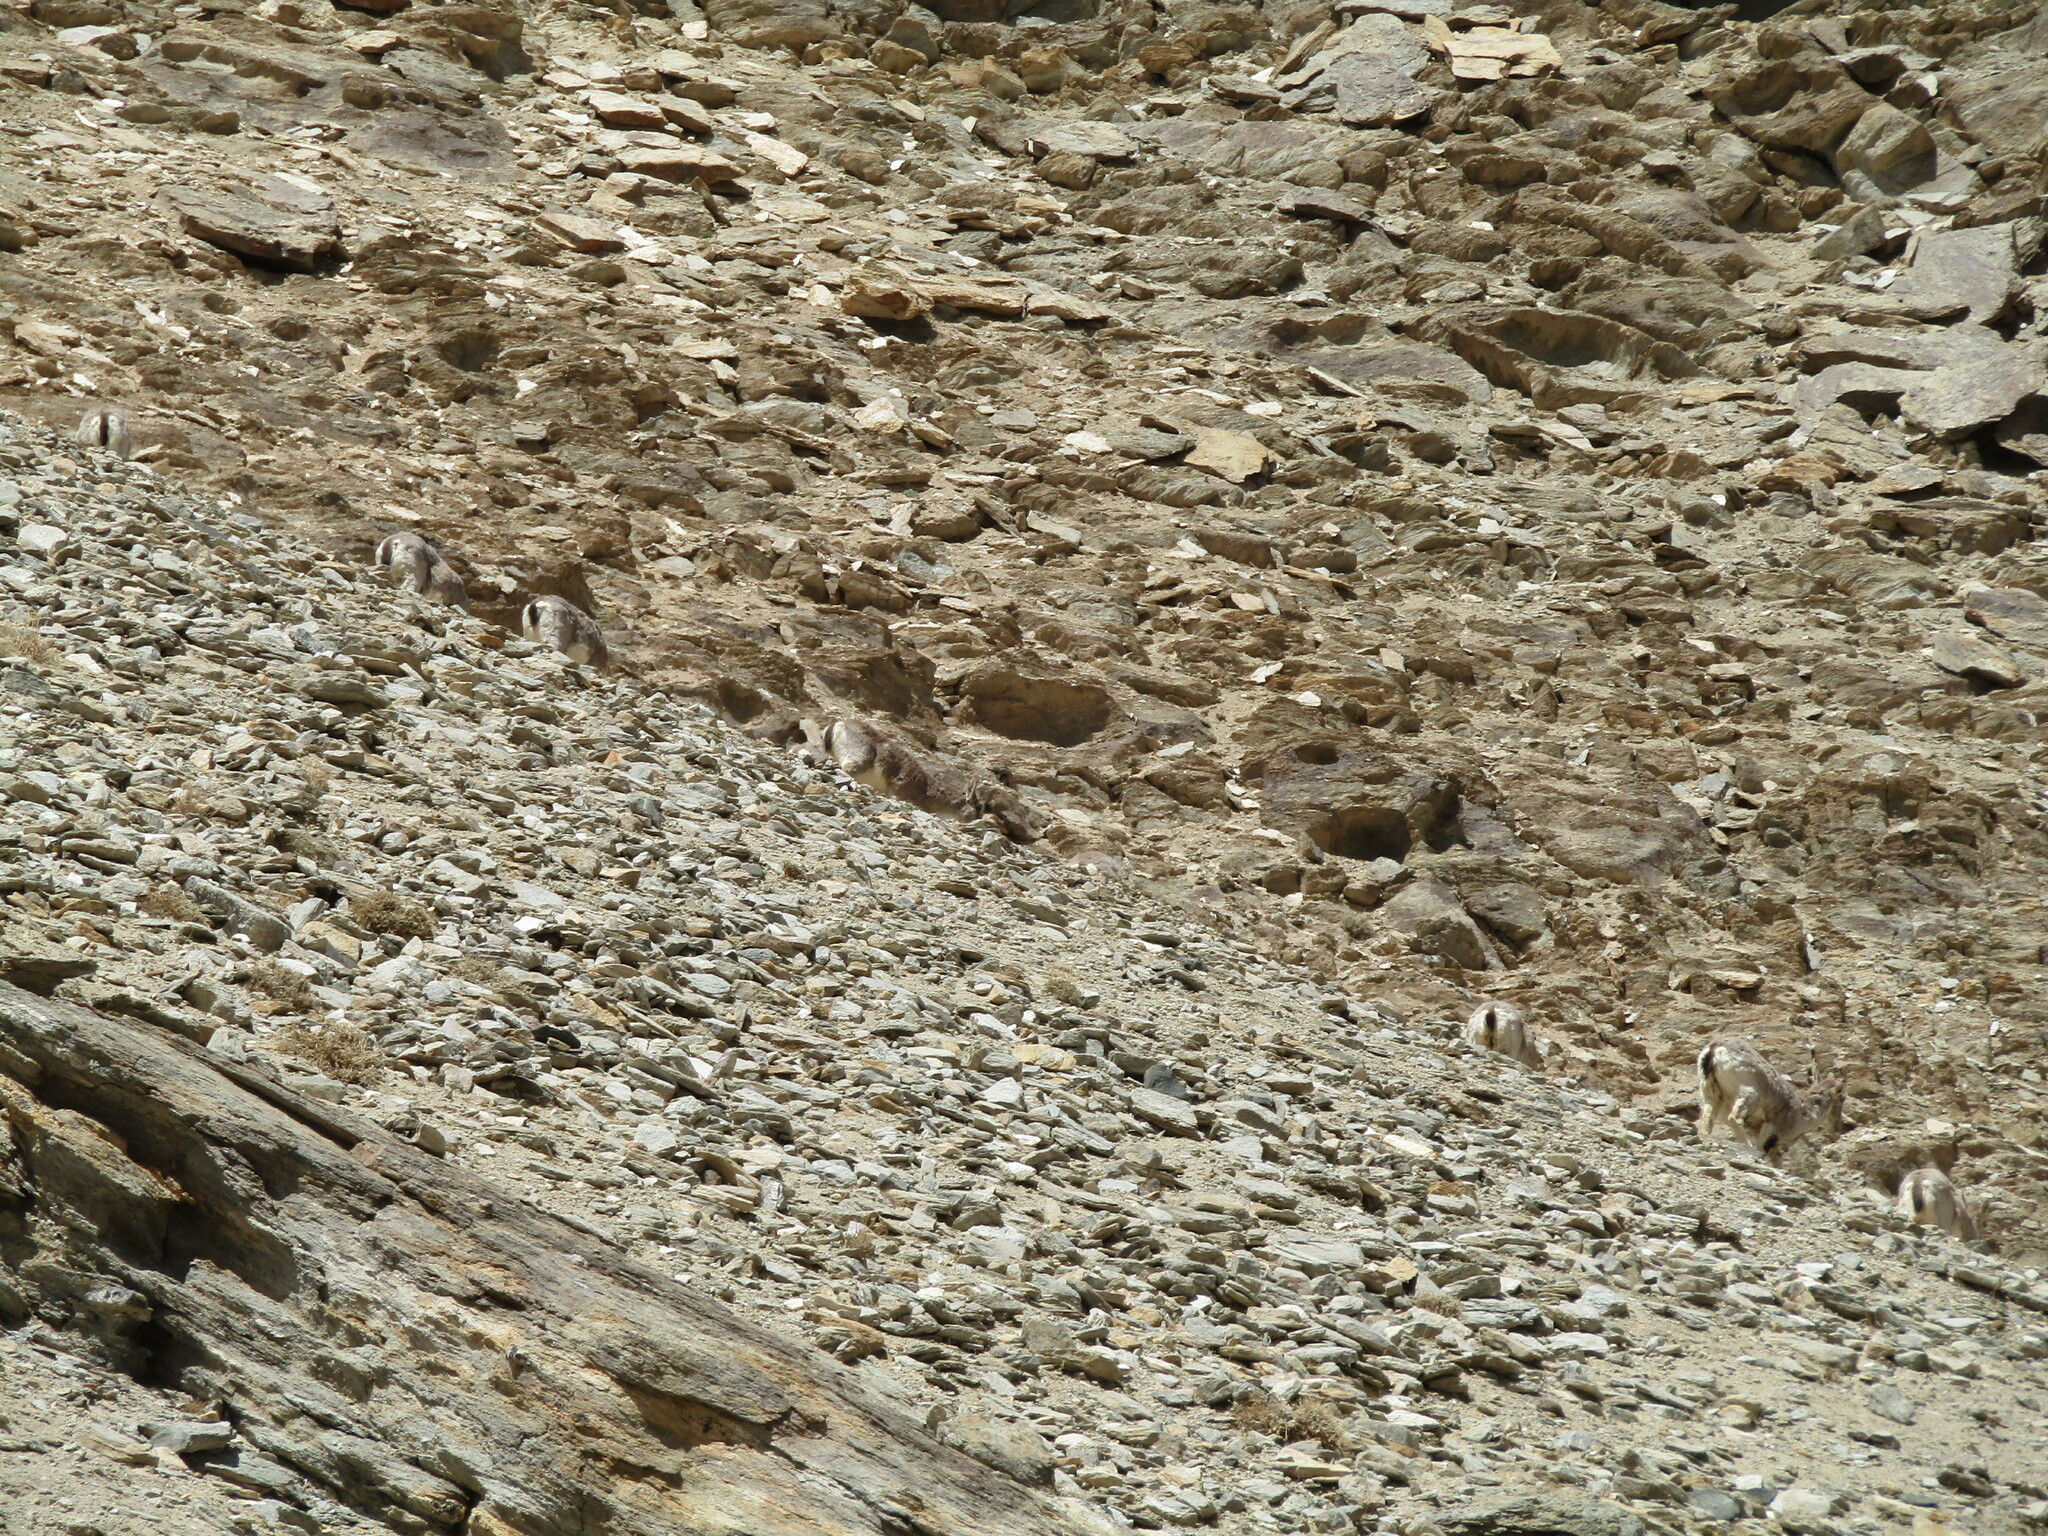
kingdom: Animalia
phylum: Chordata
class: Mammalia
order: Artiodactyla
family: Bovidae
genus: Pseudois
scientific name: Pseudois nayaur
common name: Bharal
